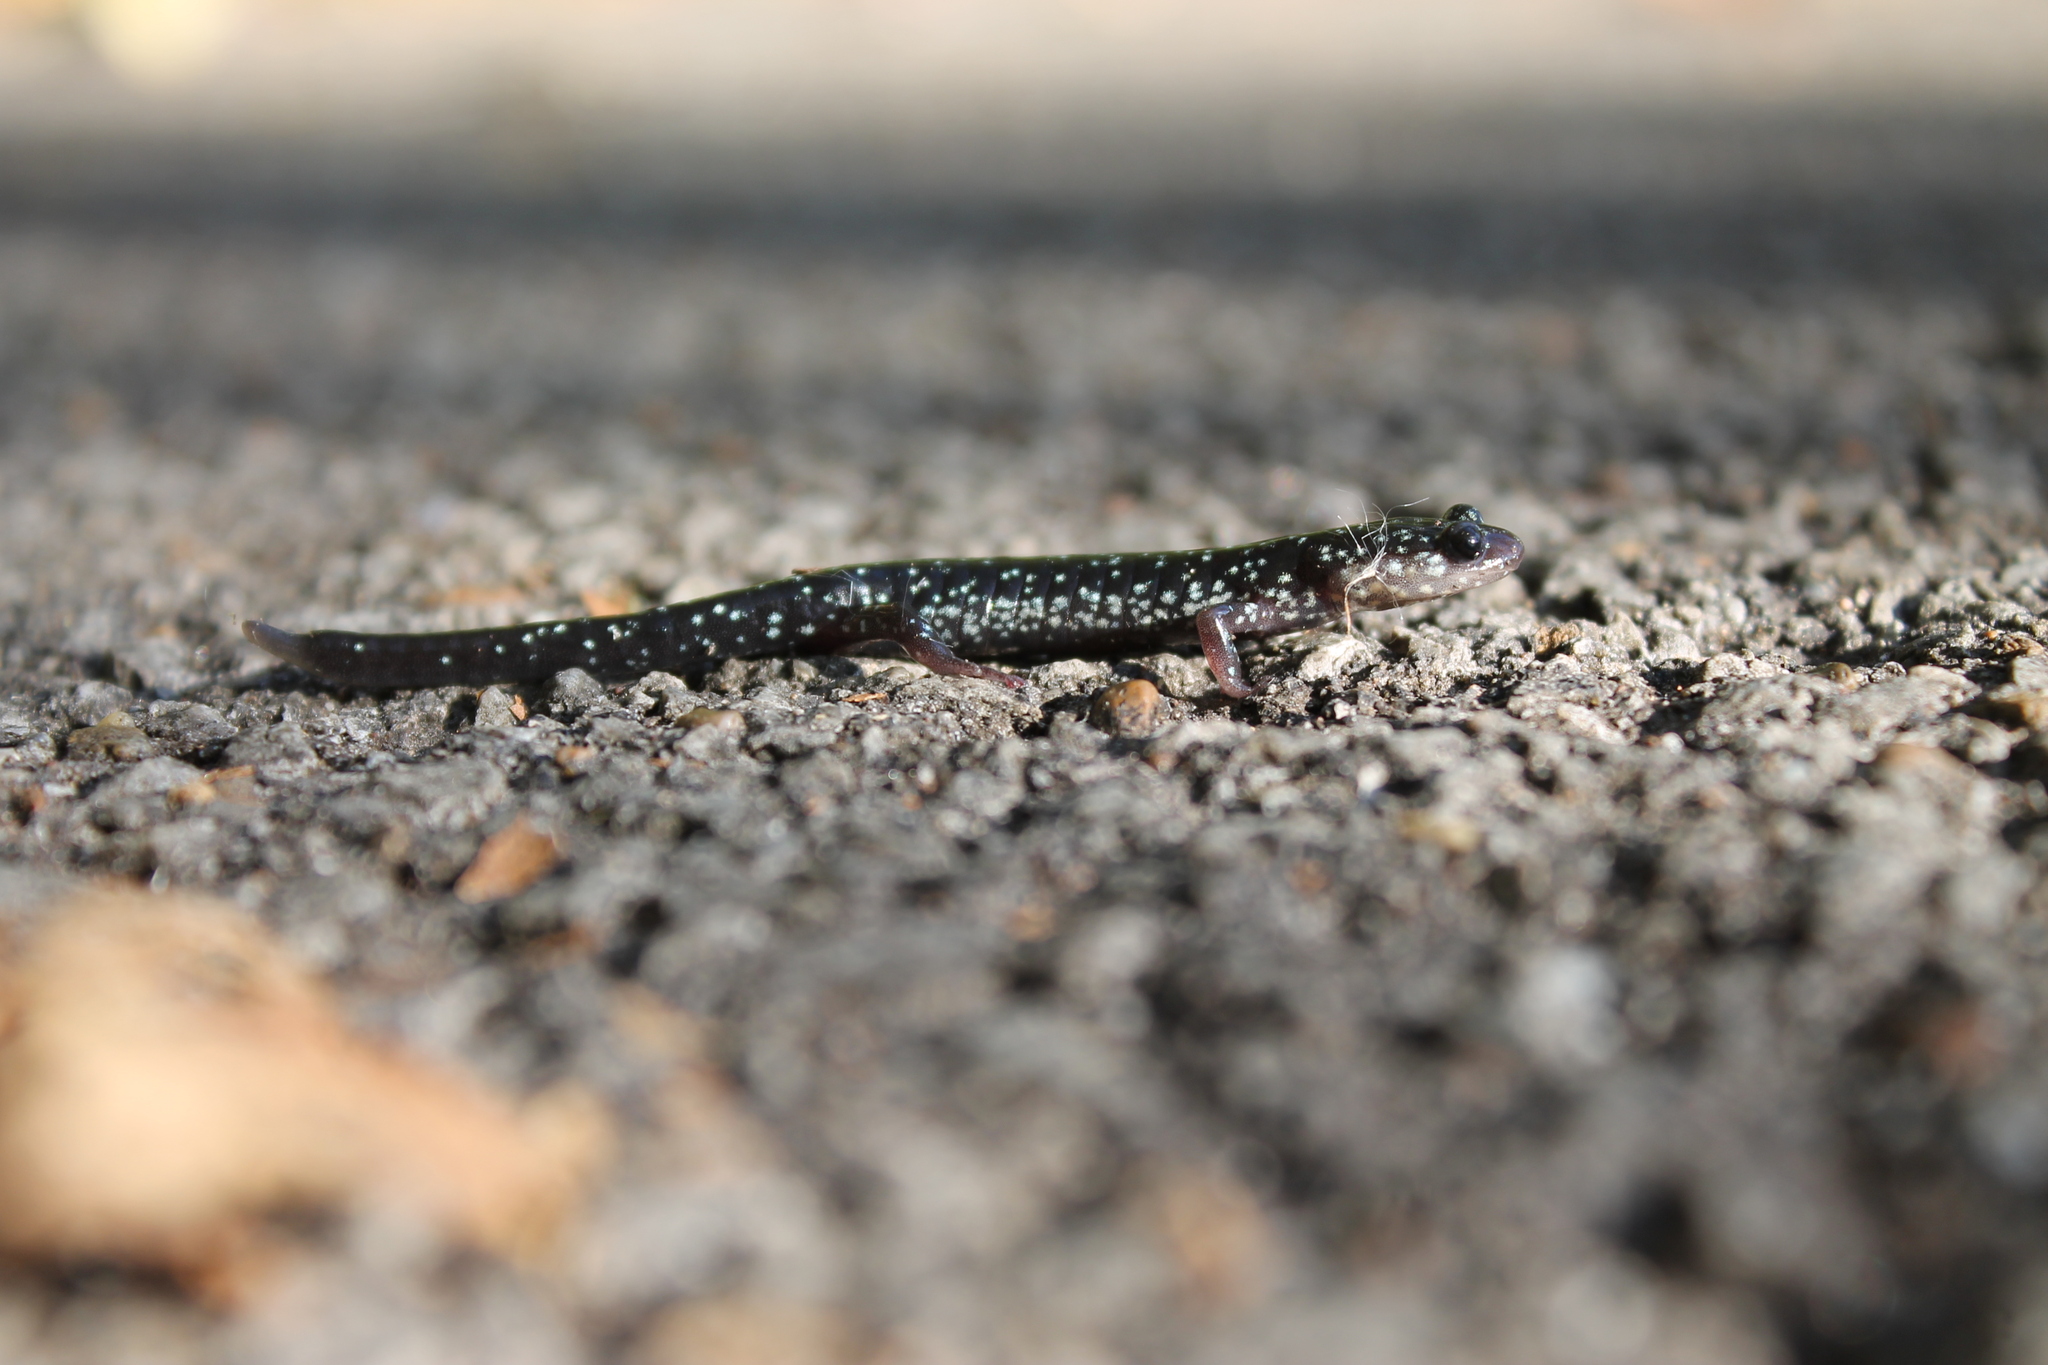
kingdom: Animalia
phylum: Chordata
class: Amphibia
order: Caudata
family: Plethodontidae
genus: Plethodon
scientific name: Plethodon glutinosus
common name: Northern slimy salamander
